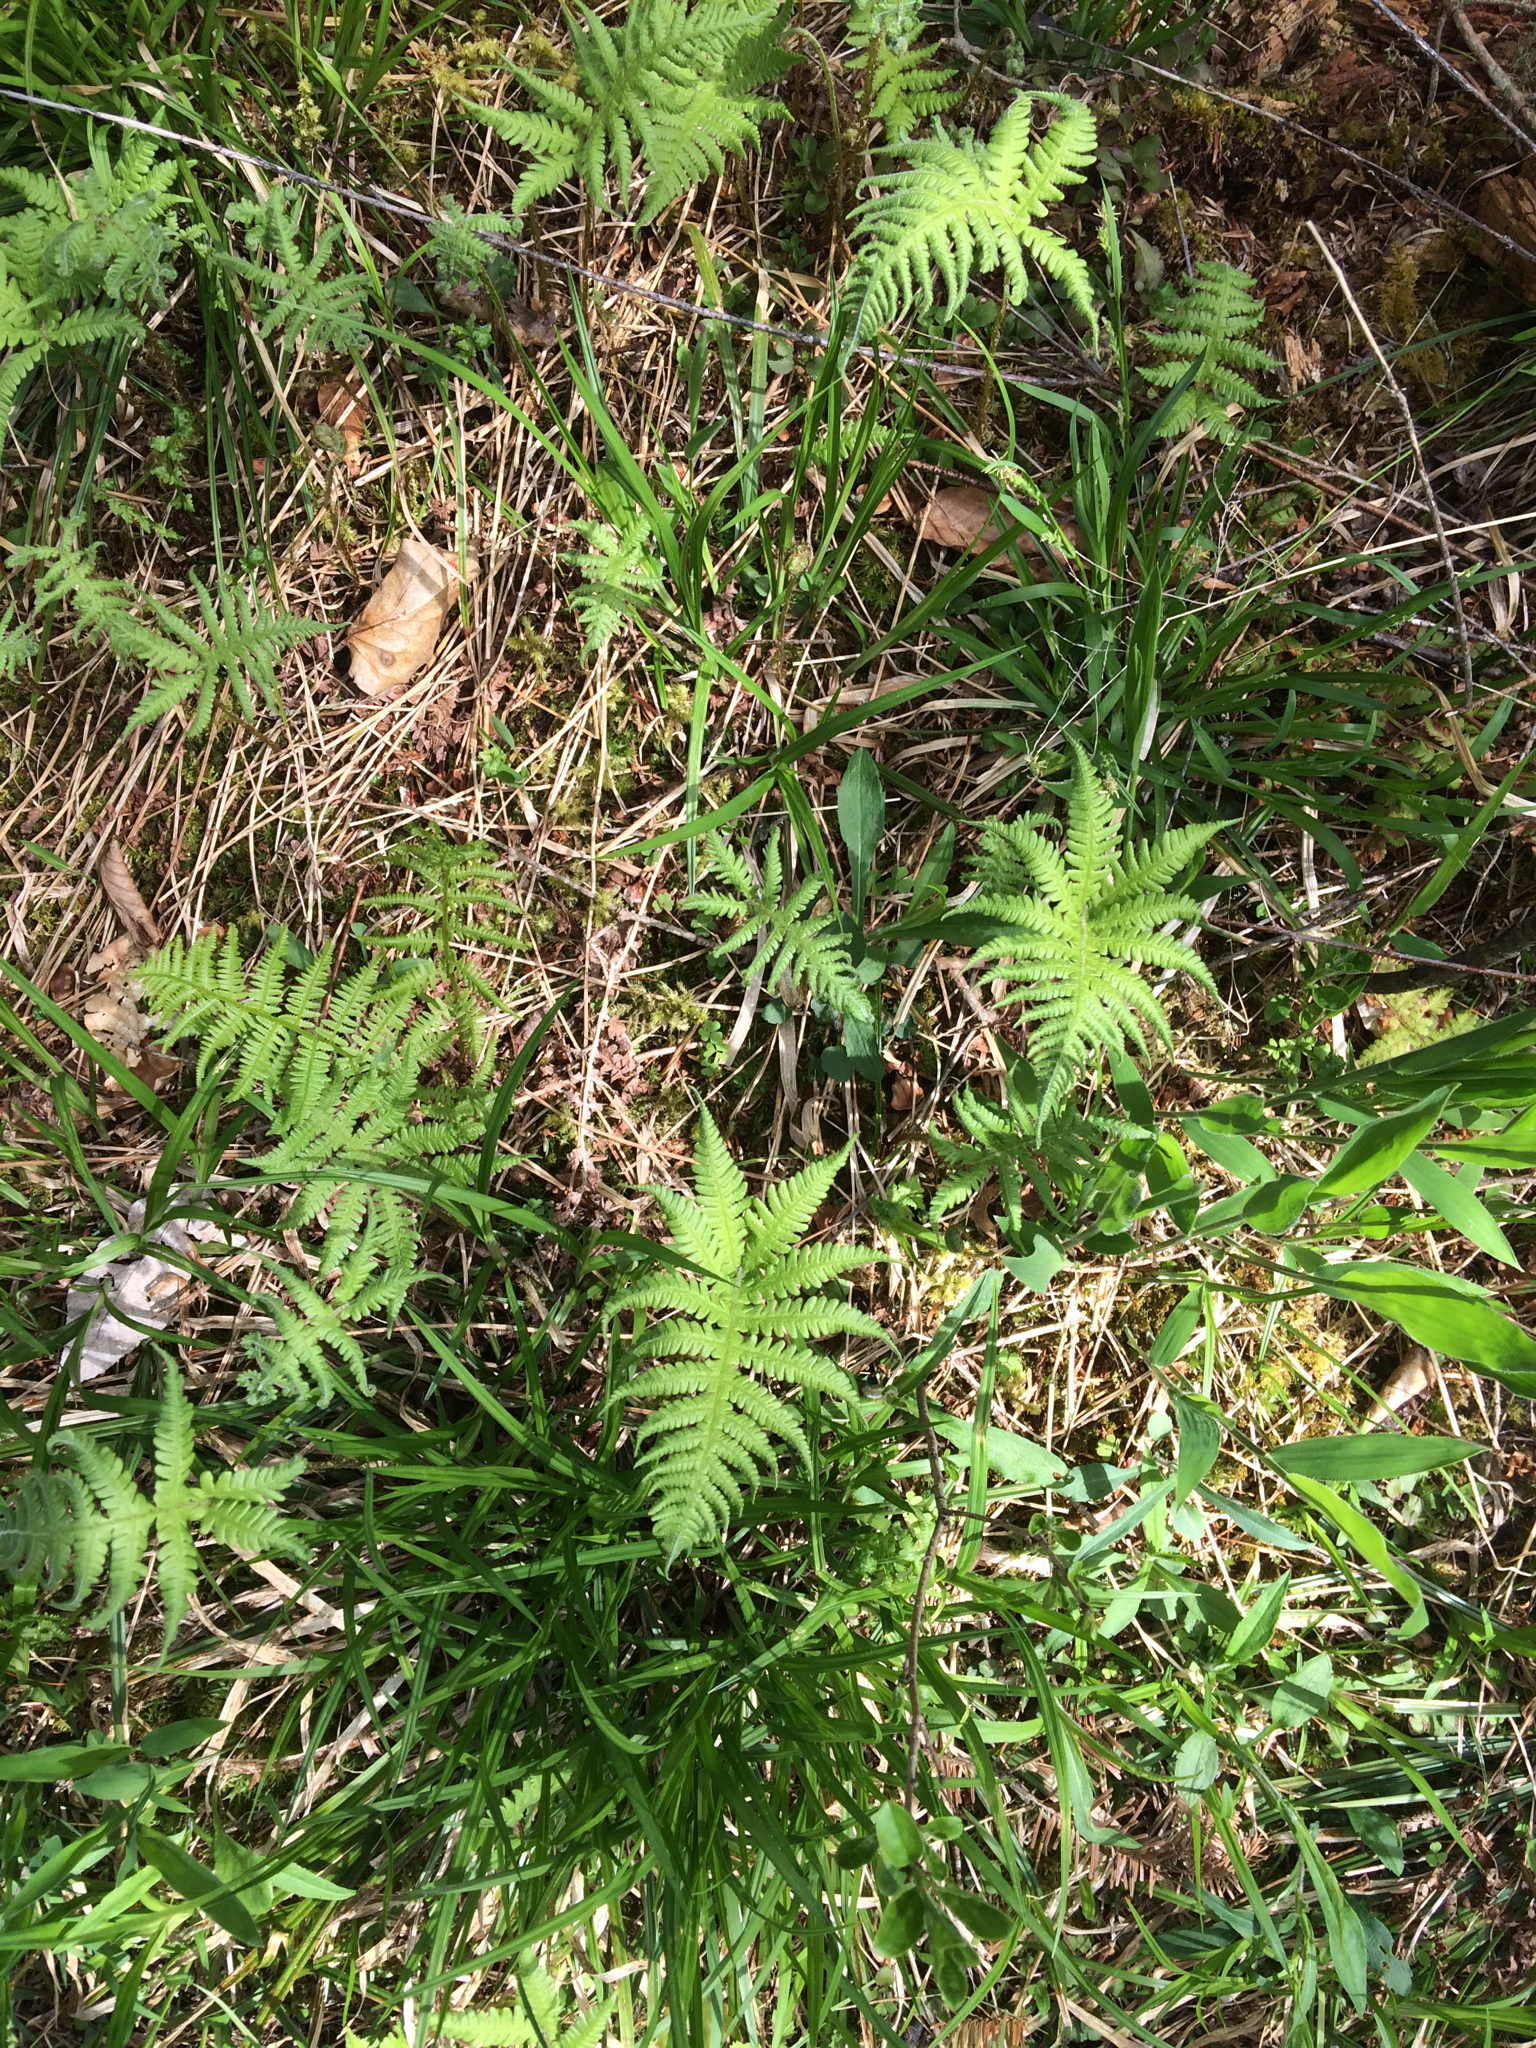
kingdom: Plantae
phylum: Tracheophyta
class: Polypodiopsida
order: Polypodiales
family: Thelypteridaceae
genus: Phegopteris
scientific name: Phegopteris connectilis
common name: Beech fern
